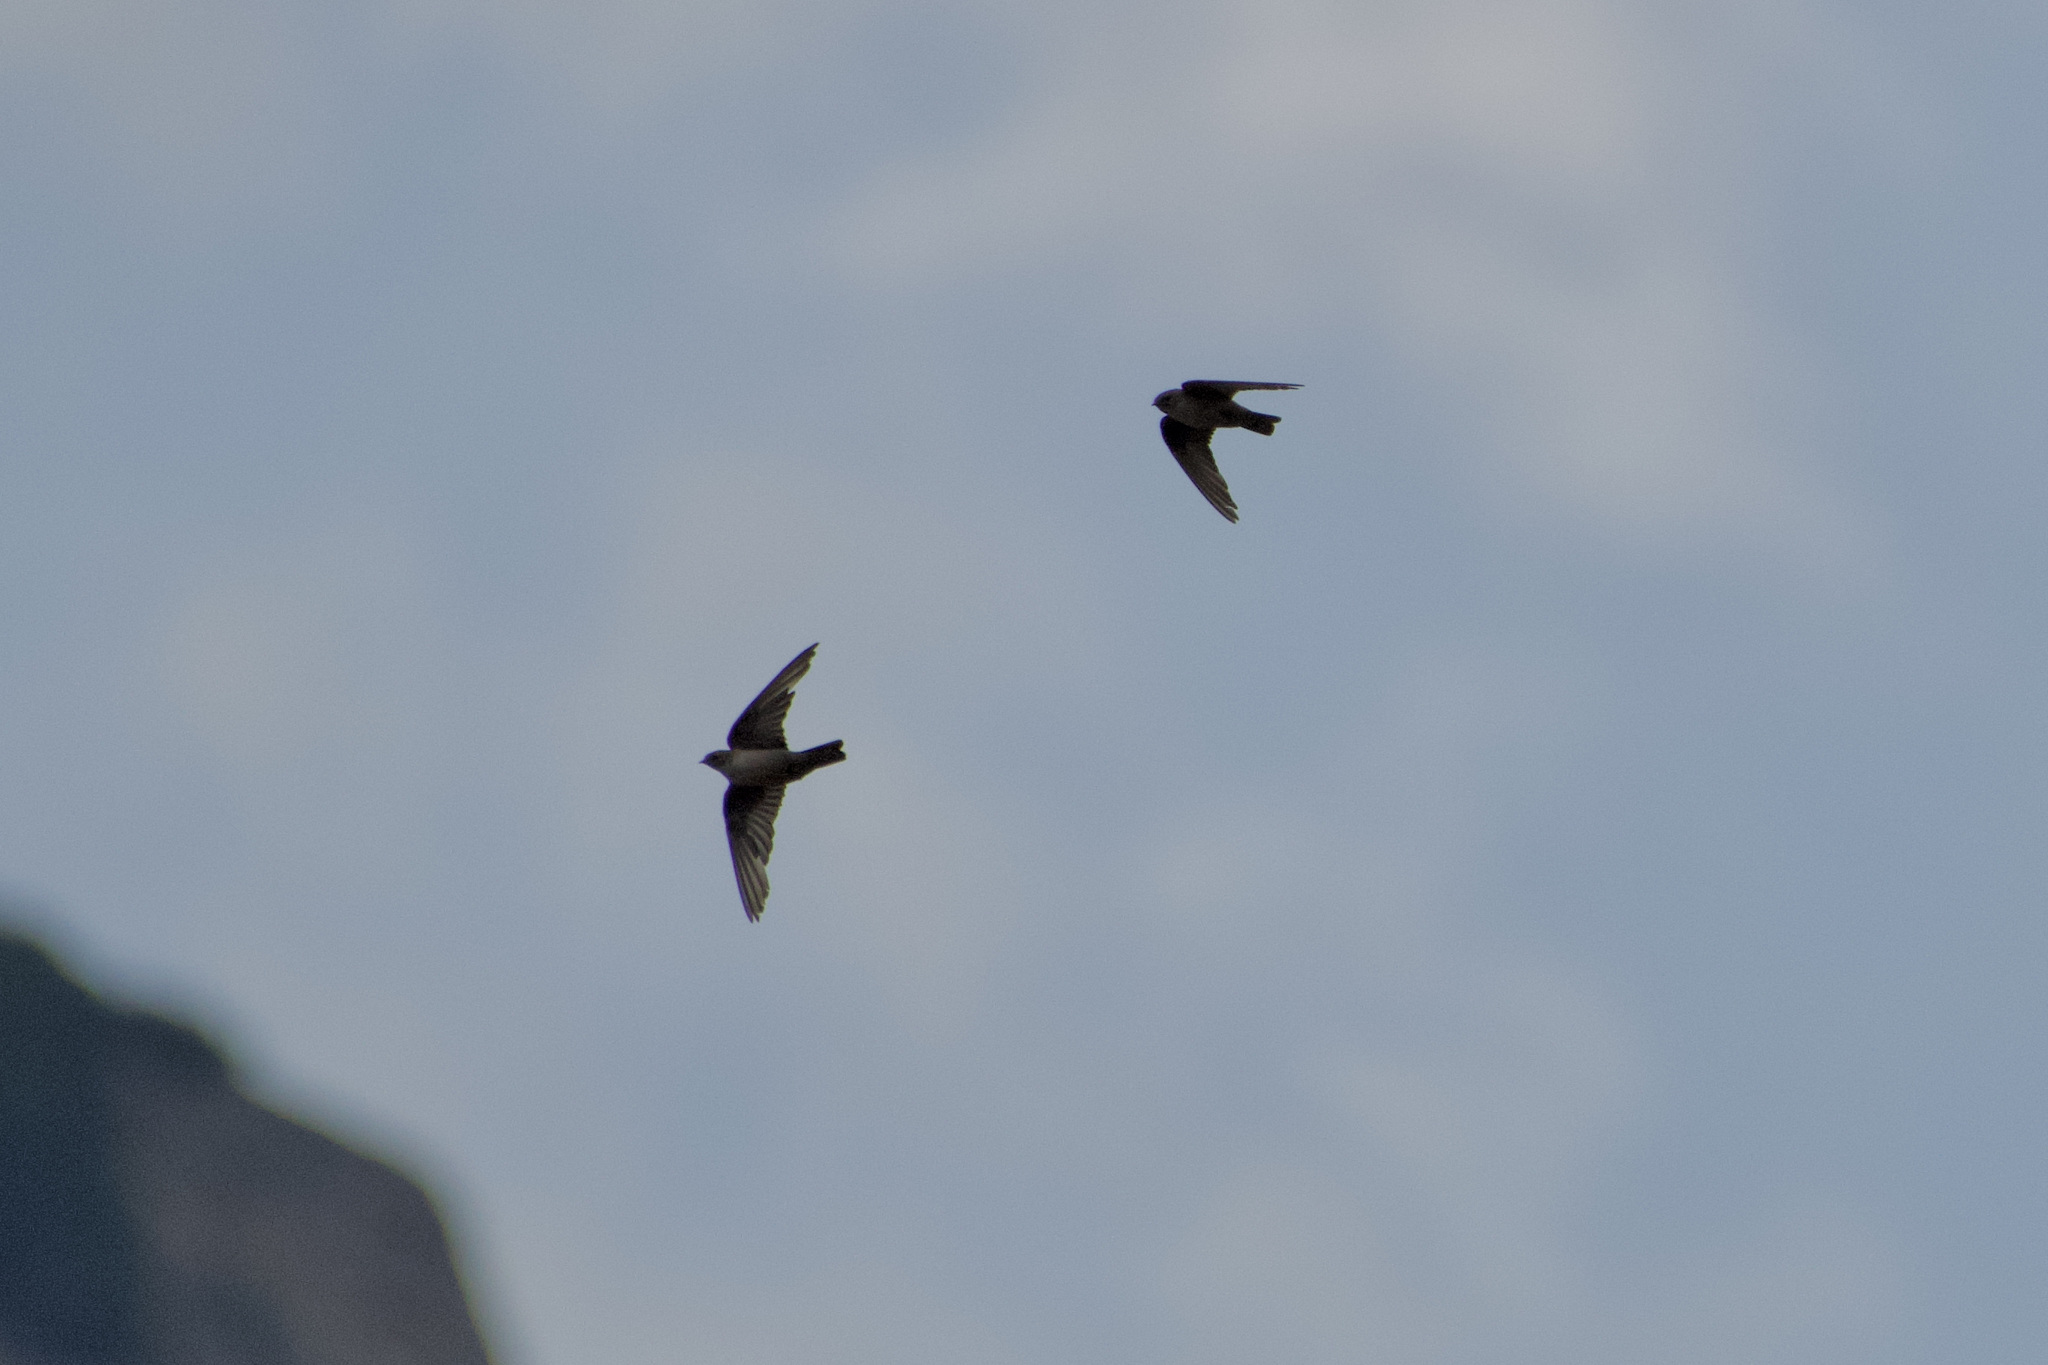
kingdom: Animalia
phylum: Chordata
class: Aves
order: Passeriformes
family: Hirundinidae
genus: Ptyonoprogne
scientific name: Ptyonoprogne rupestris
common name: Eurasian crag martin
